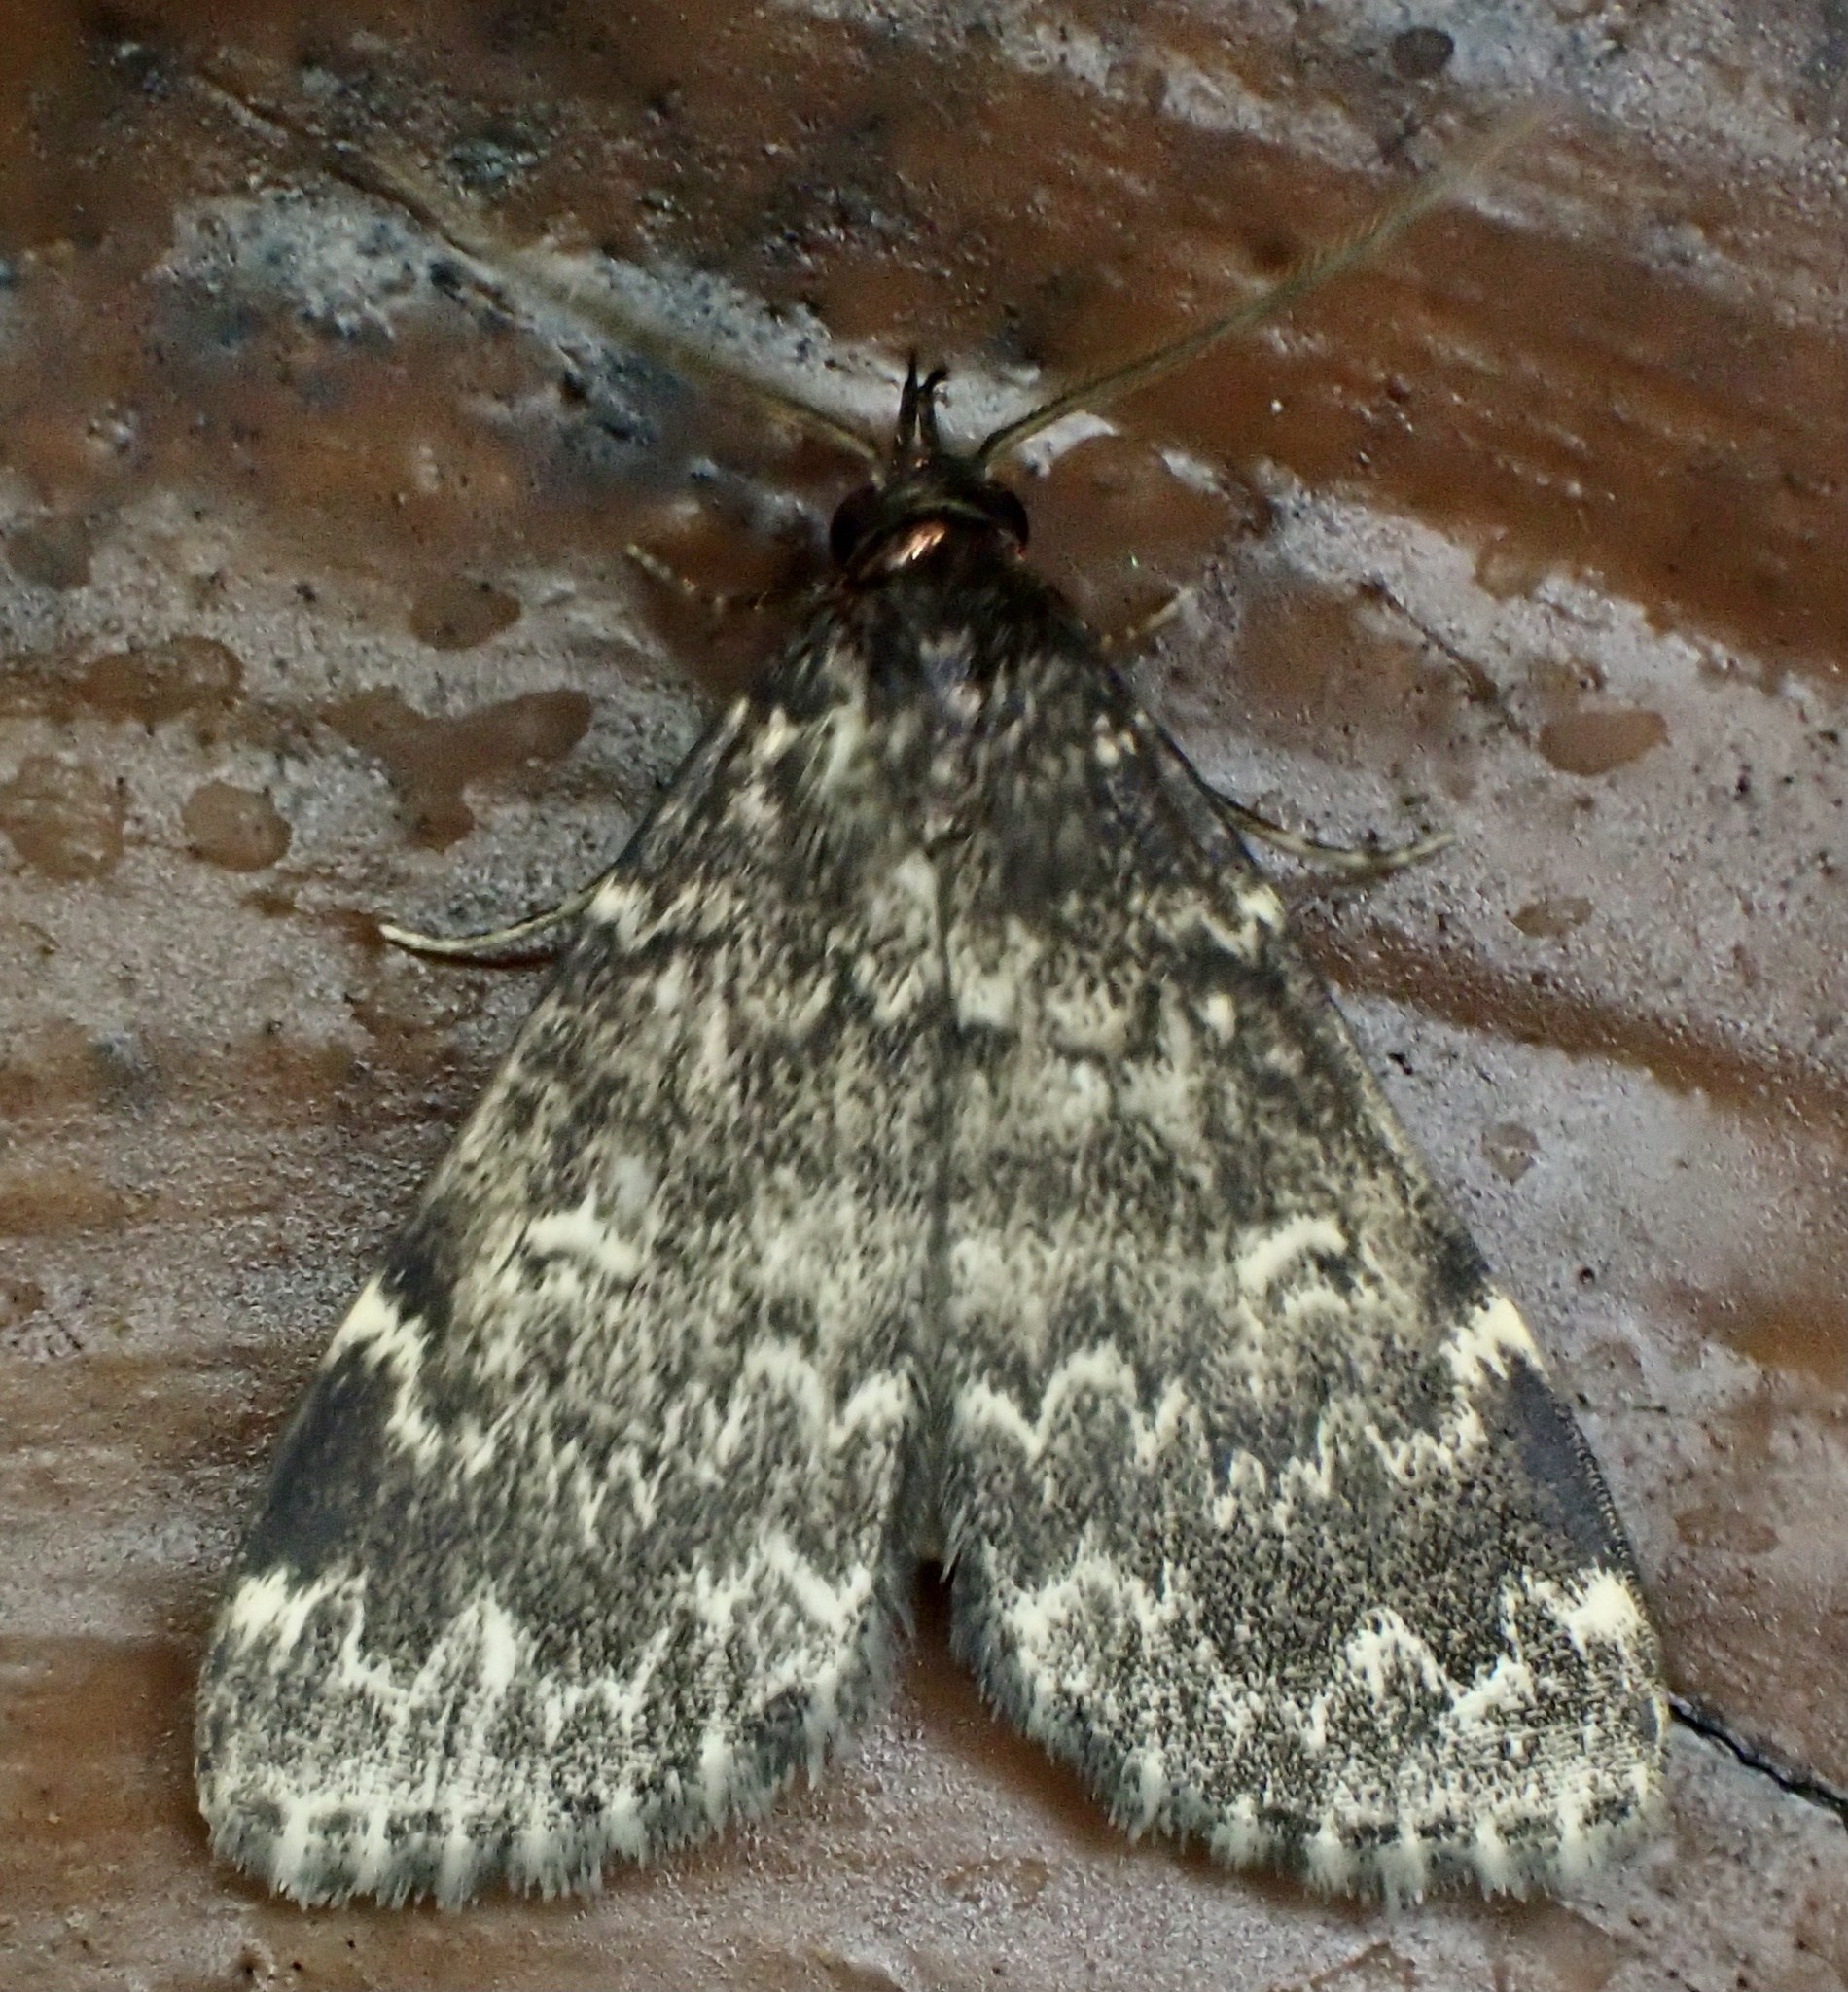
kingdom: Animalia
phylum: Arthropoda
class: Insecta
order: Lepidoptera
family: Erebidae
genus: Idia
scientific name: Idia lubricalis
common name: Twin-striped tabby
